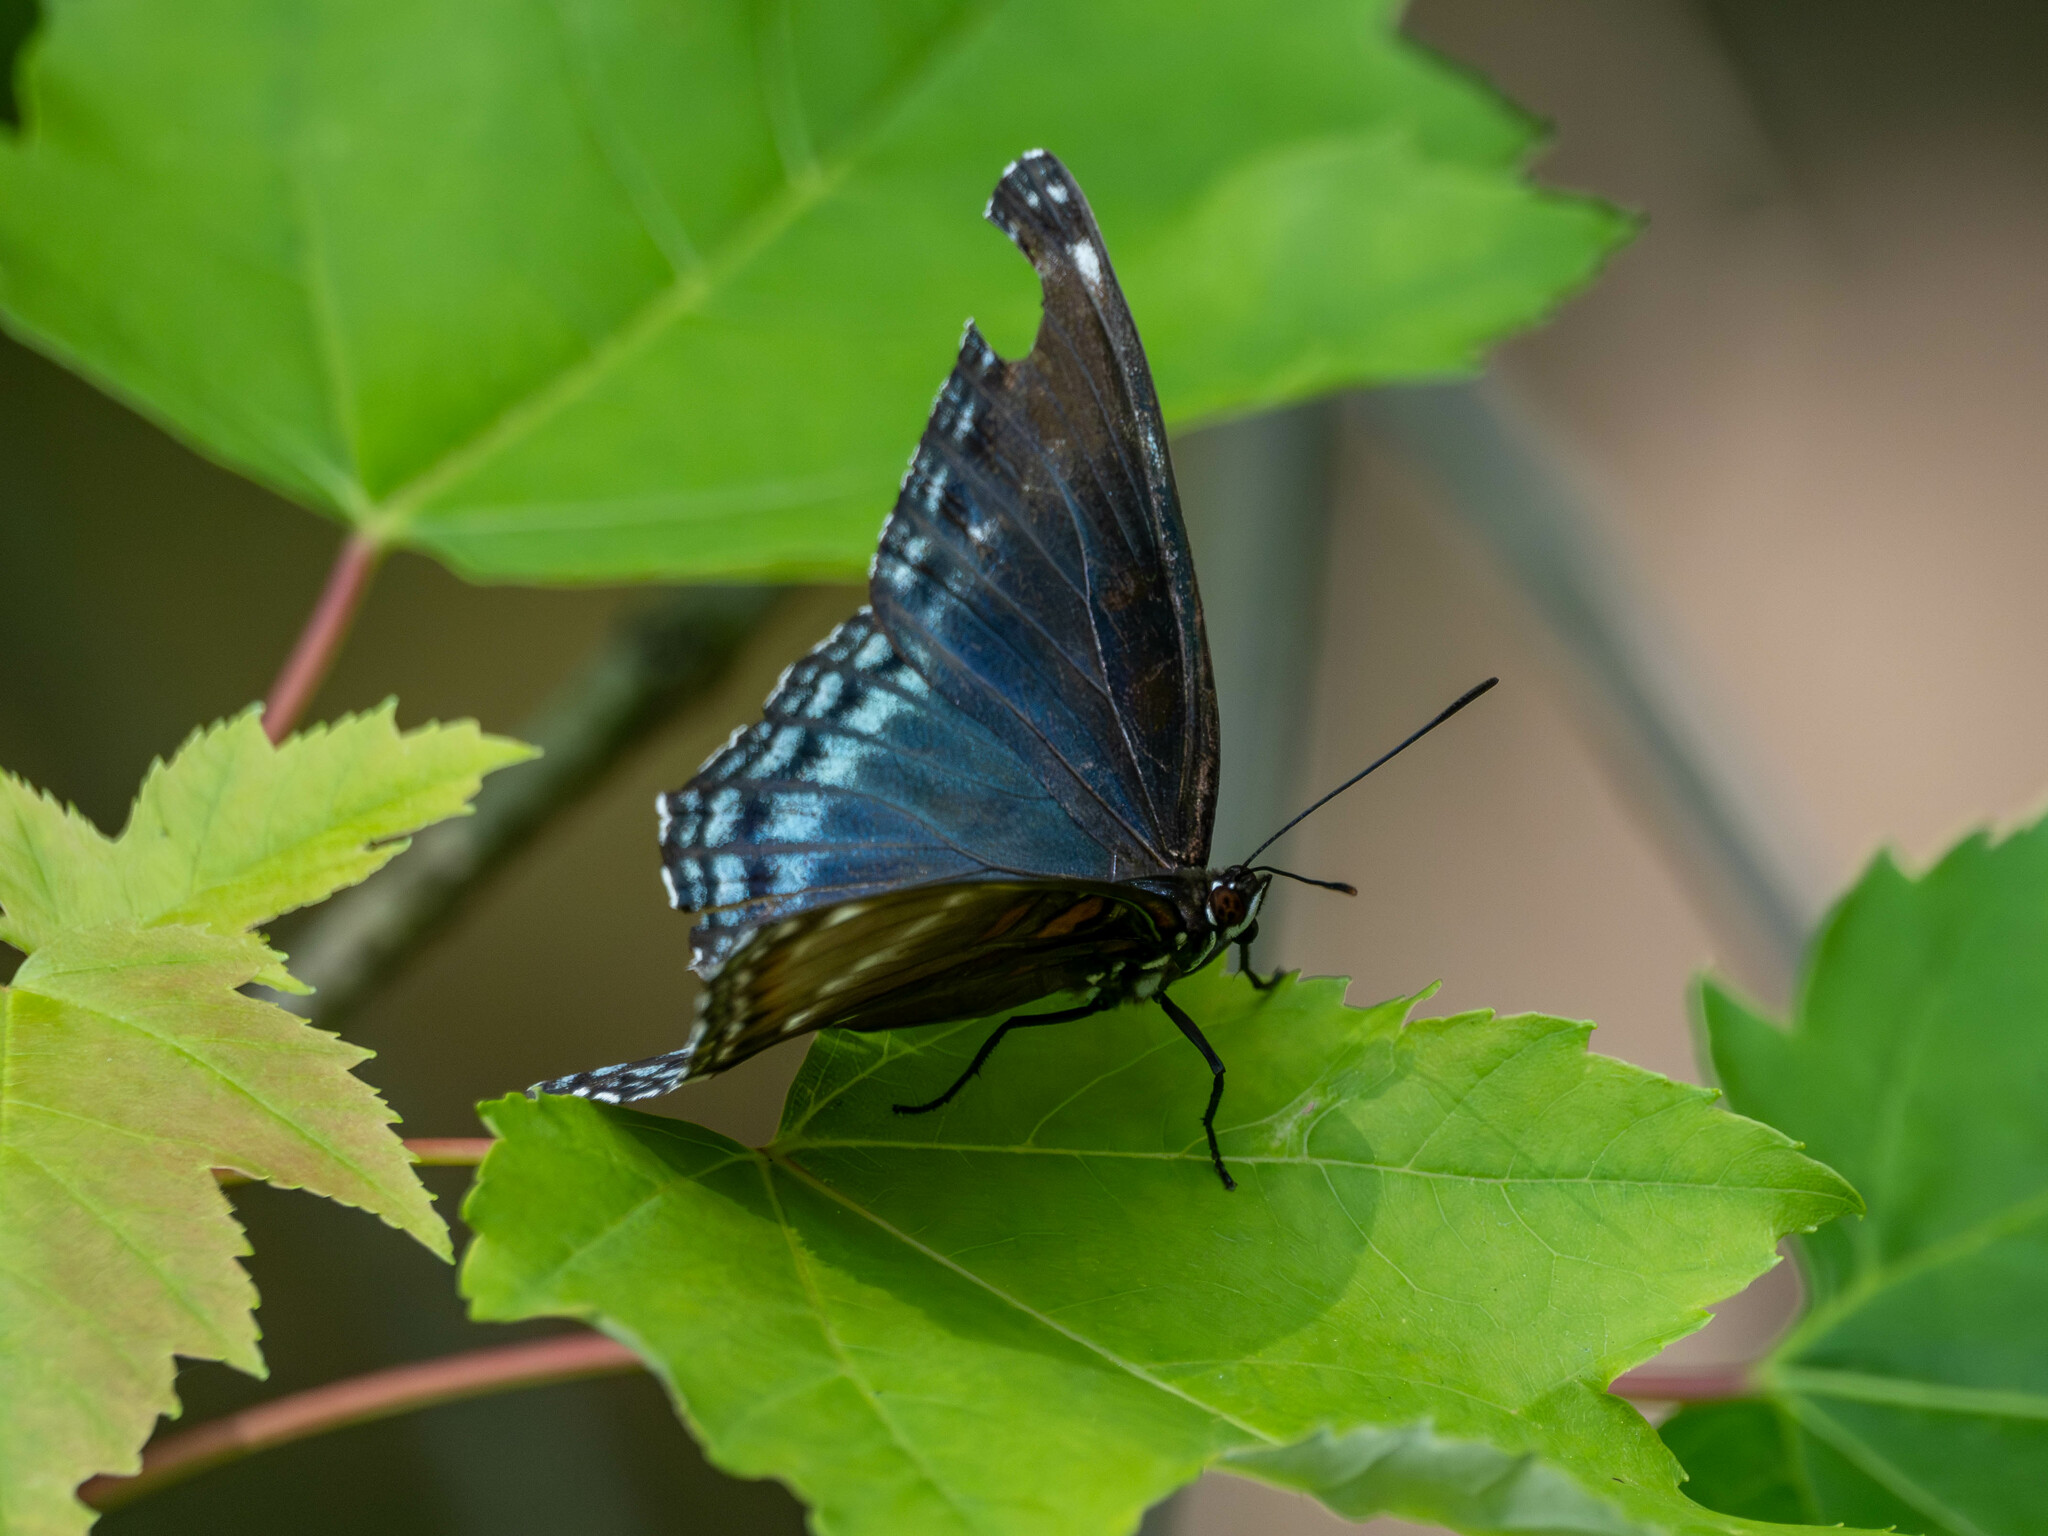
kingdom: Animalia
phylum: Arthropoda
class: Insecta
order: Lepidoptera
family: Nymphalidae
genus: Limenitis
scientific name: Limenitis astyanax
